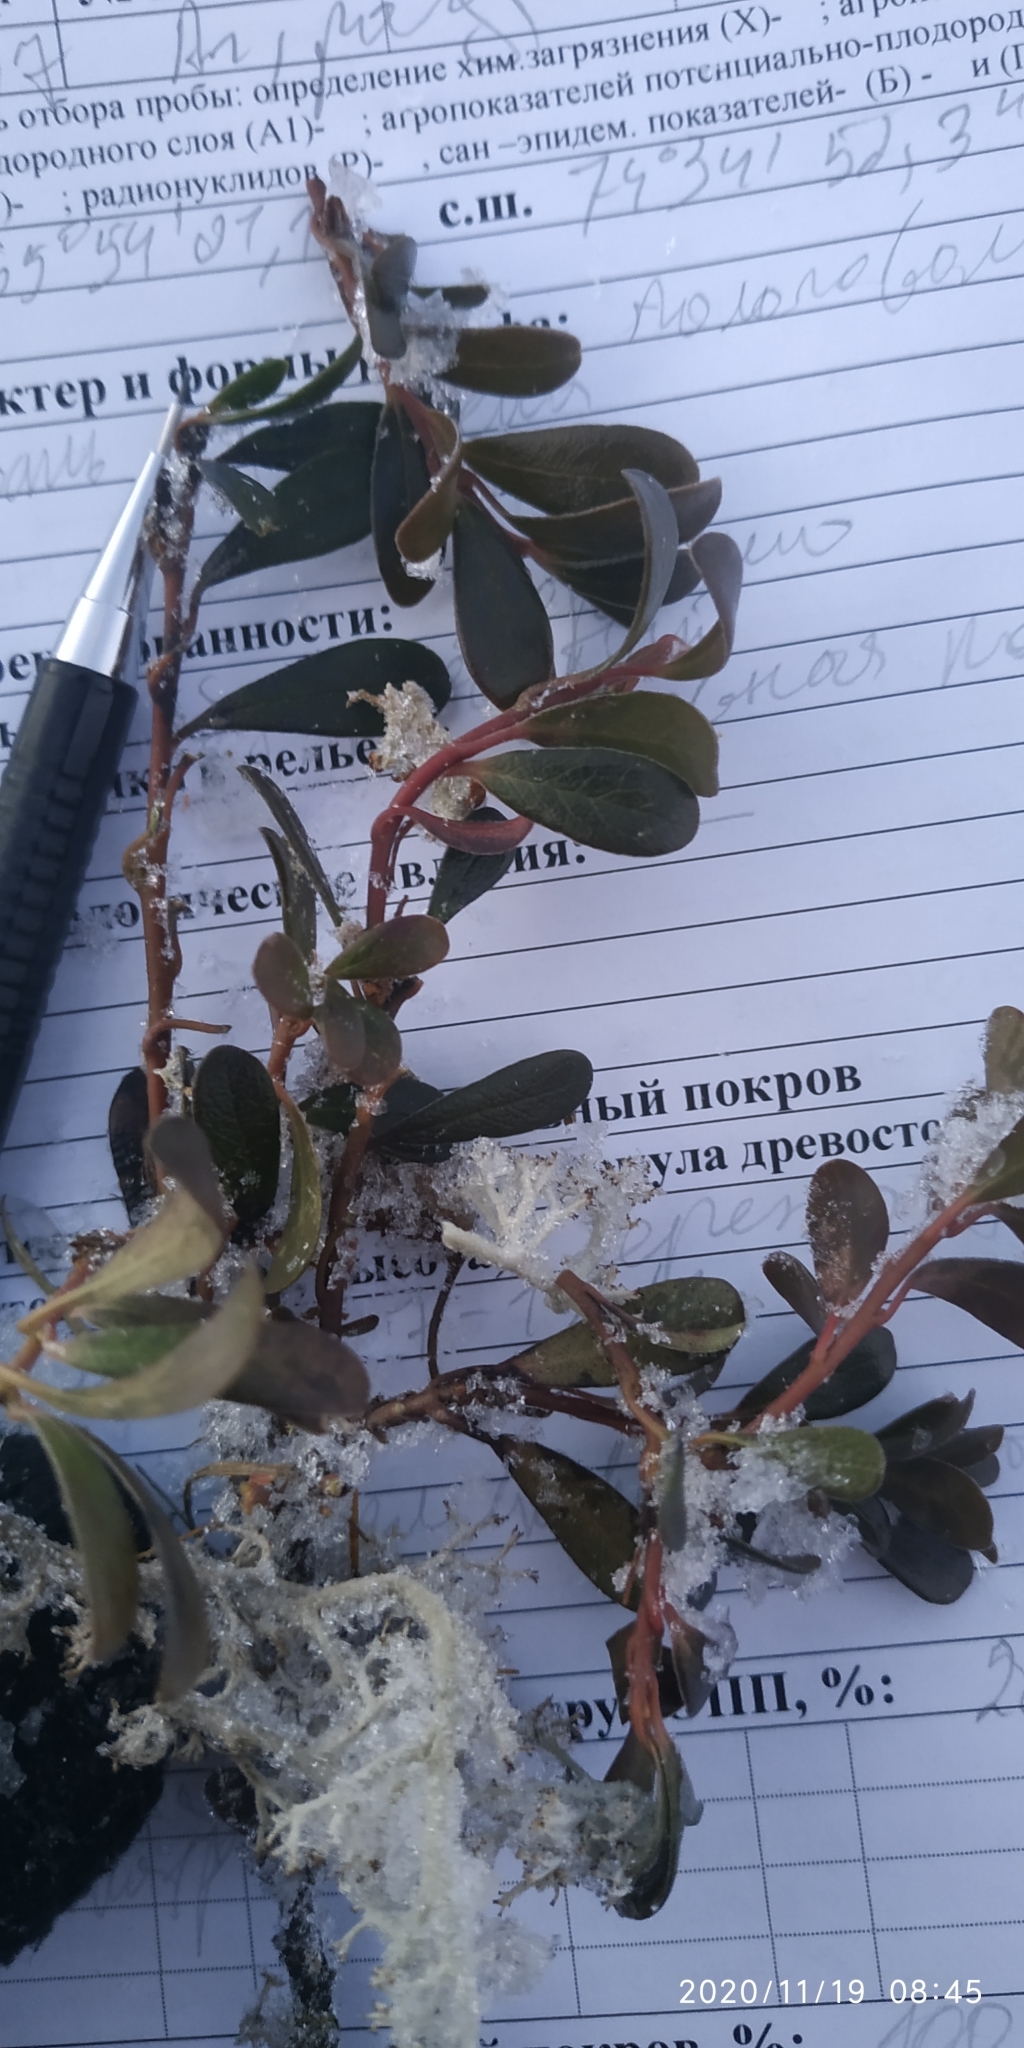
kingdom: Plantae
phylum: Tracheophyta
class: Magnoliopsida
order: Ericales
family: Ericaceae
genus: Arctostaphylos
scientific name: Arctostaphylos uva-ursi
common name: Bearberry
